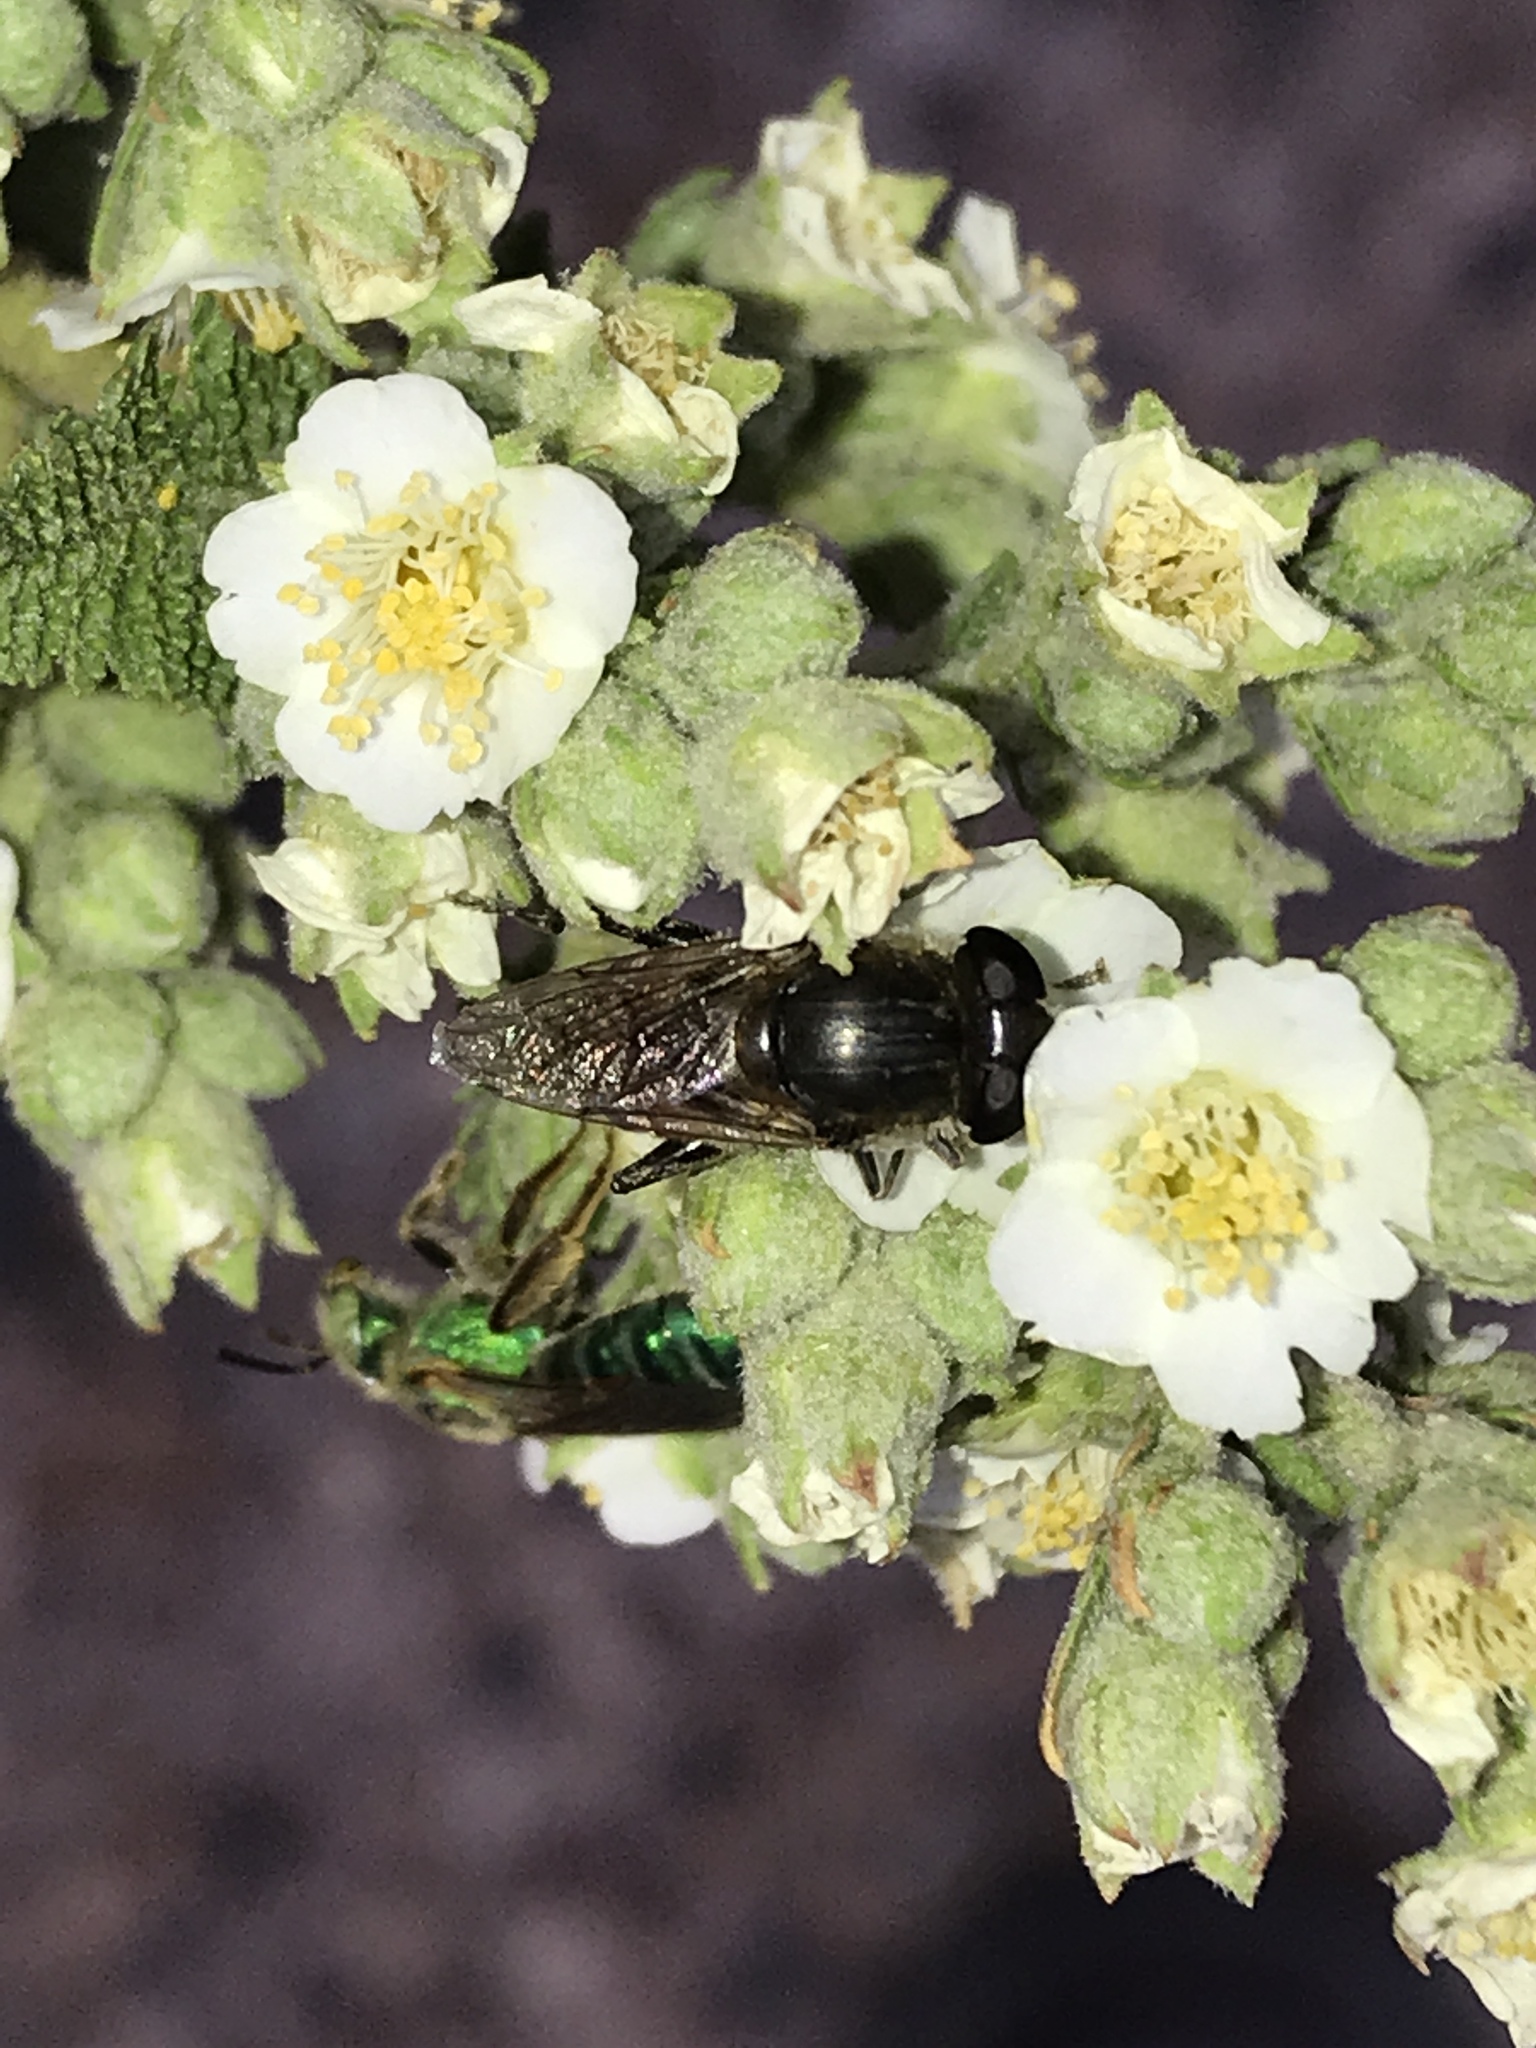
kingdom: Animalia
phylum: Arthropoda
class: Insecta
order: Diptera
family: Syrphidae
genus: Asemosyrphus
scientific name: Asemosyrphus polygrammus
